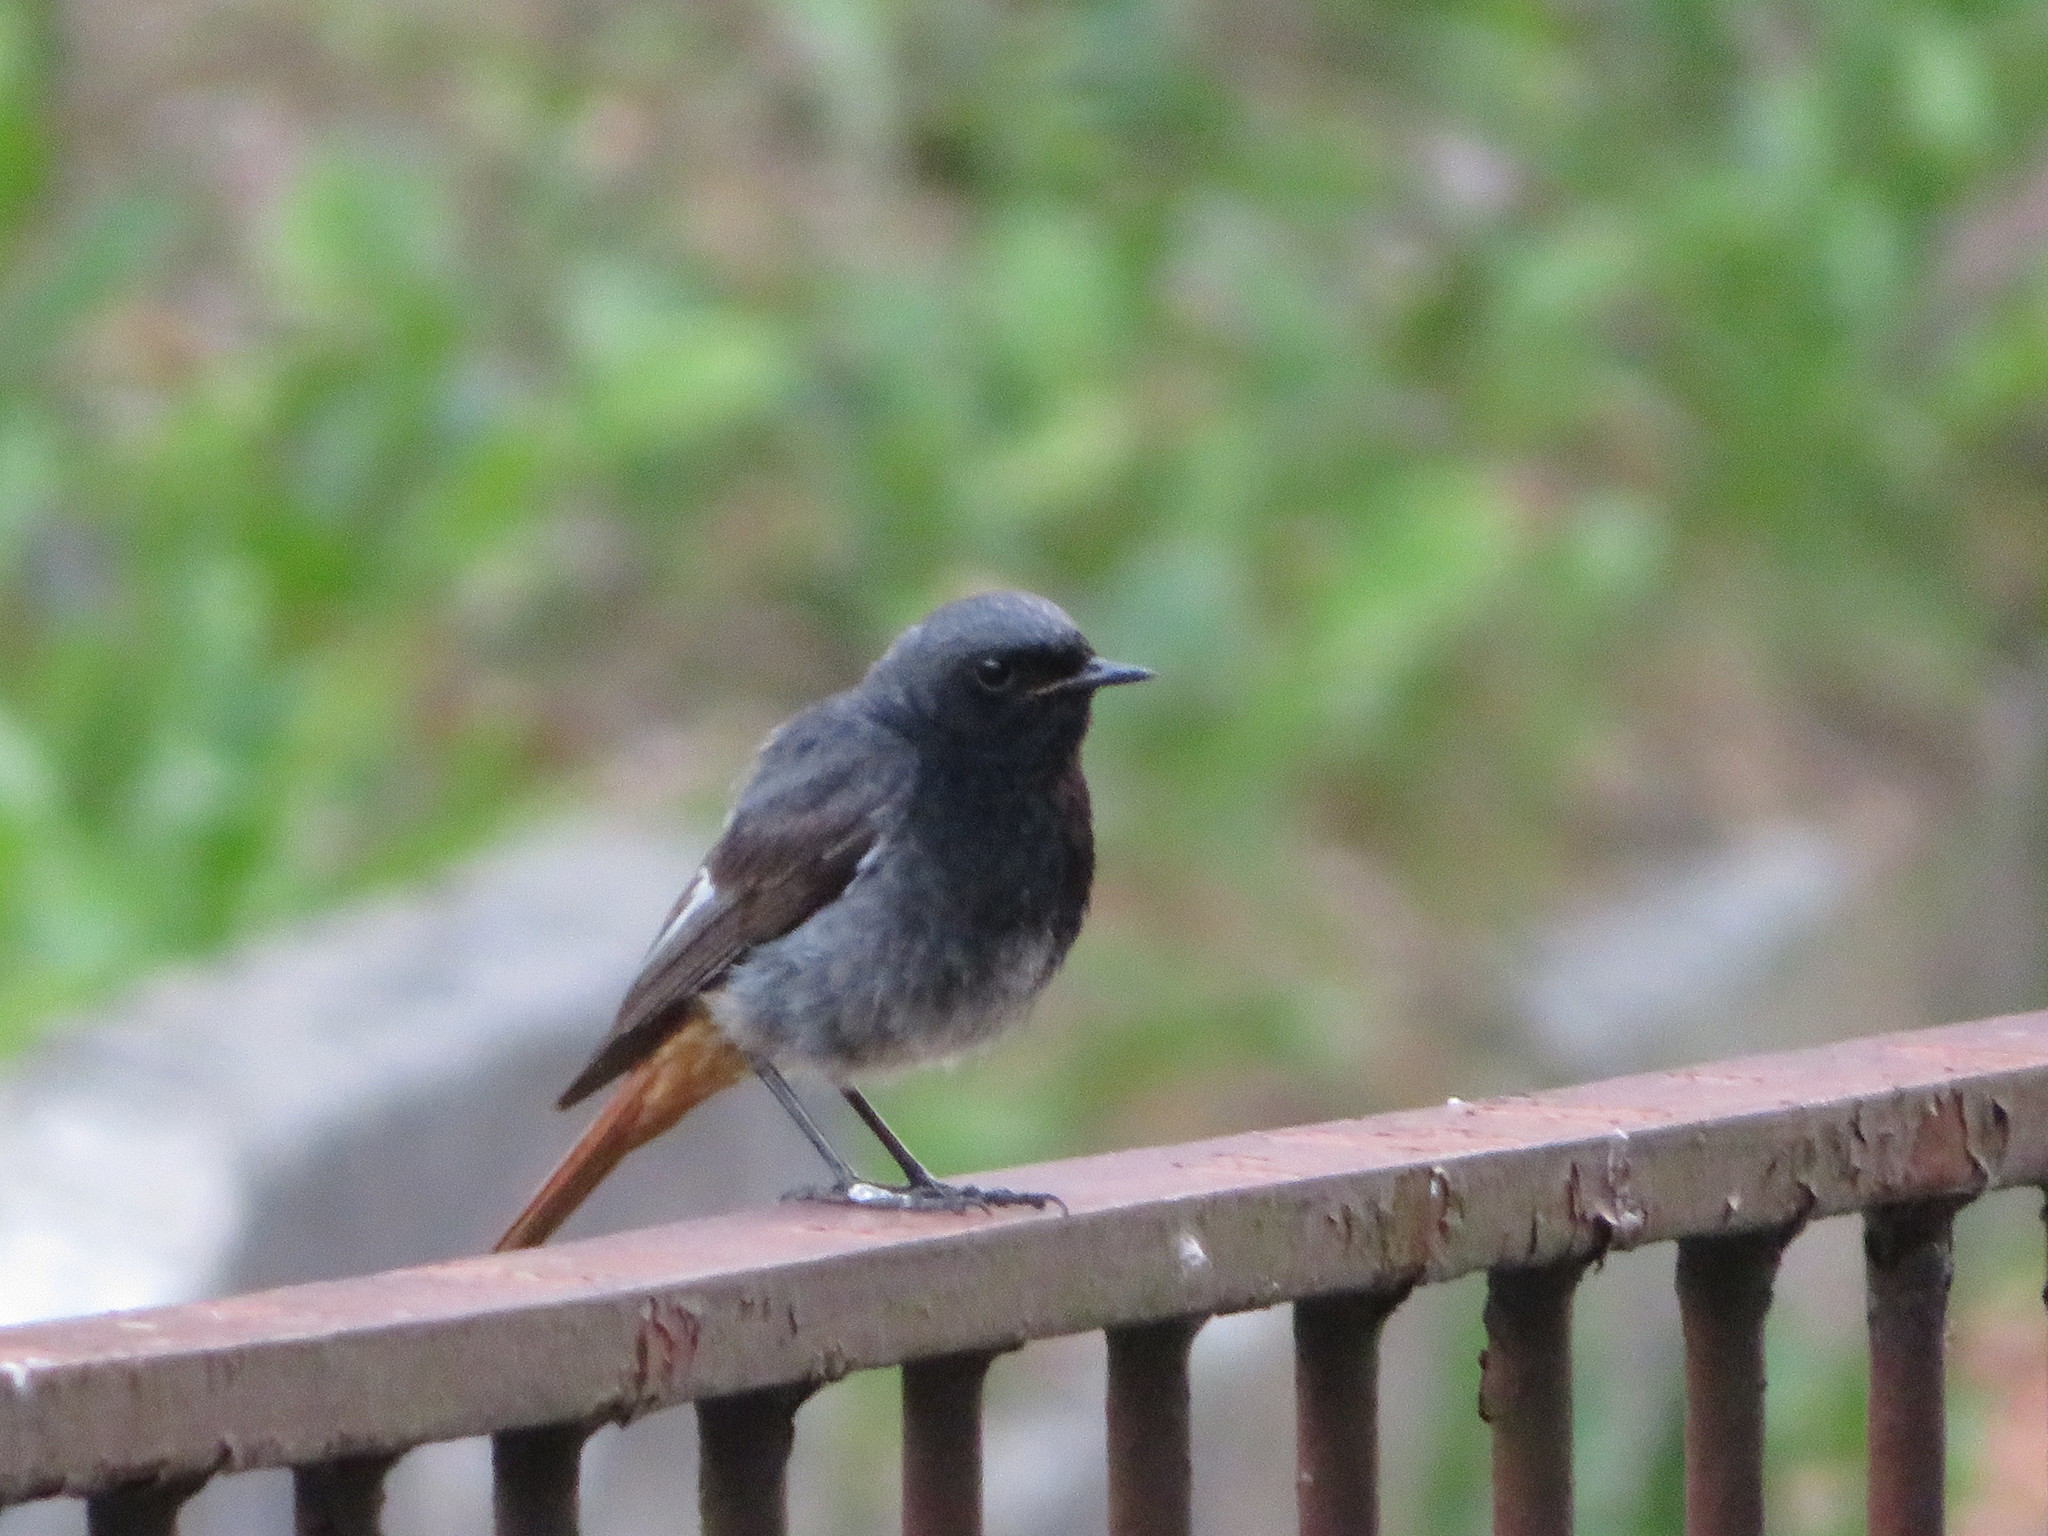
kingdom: Animalia
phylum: Chordata
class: Aves
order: Passeriformes
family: Muscicapidae
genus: Phoenicurus
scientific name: Phoenicurus ochruros
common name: Black redstart
